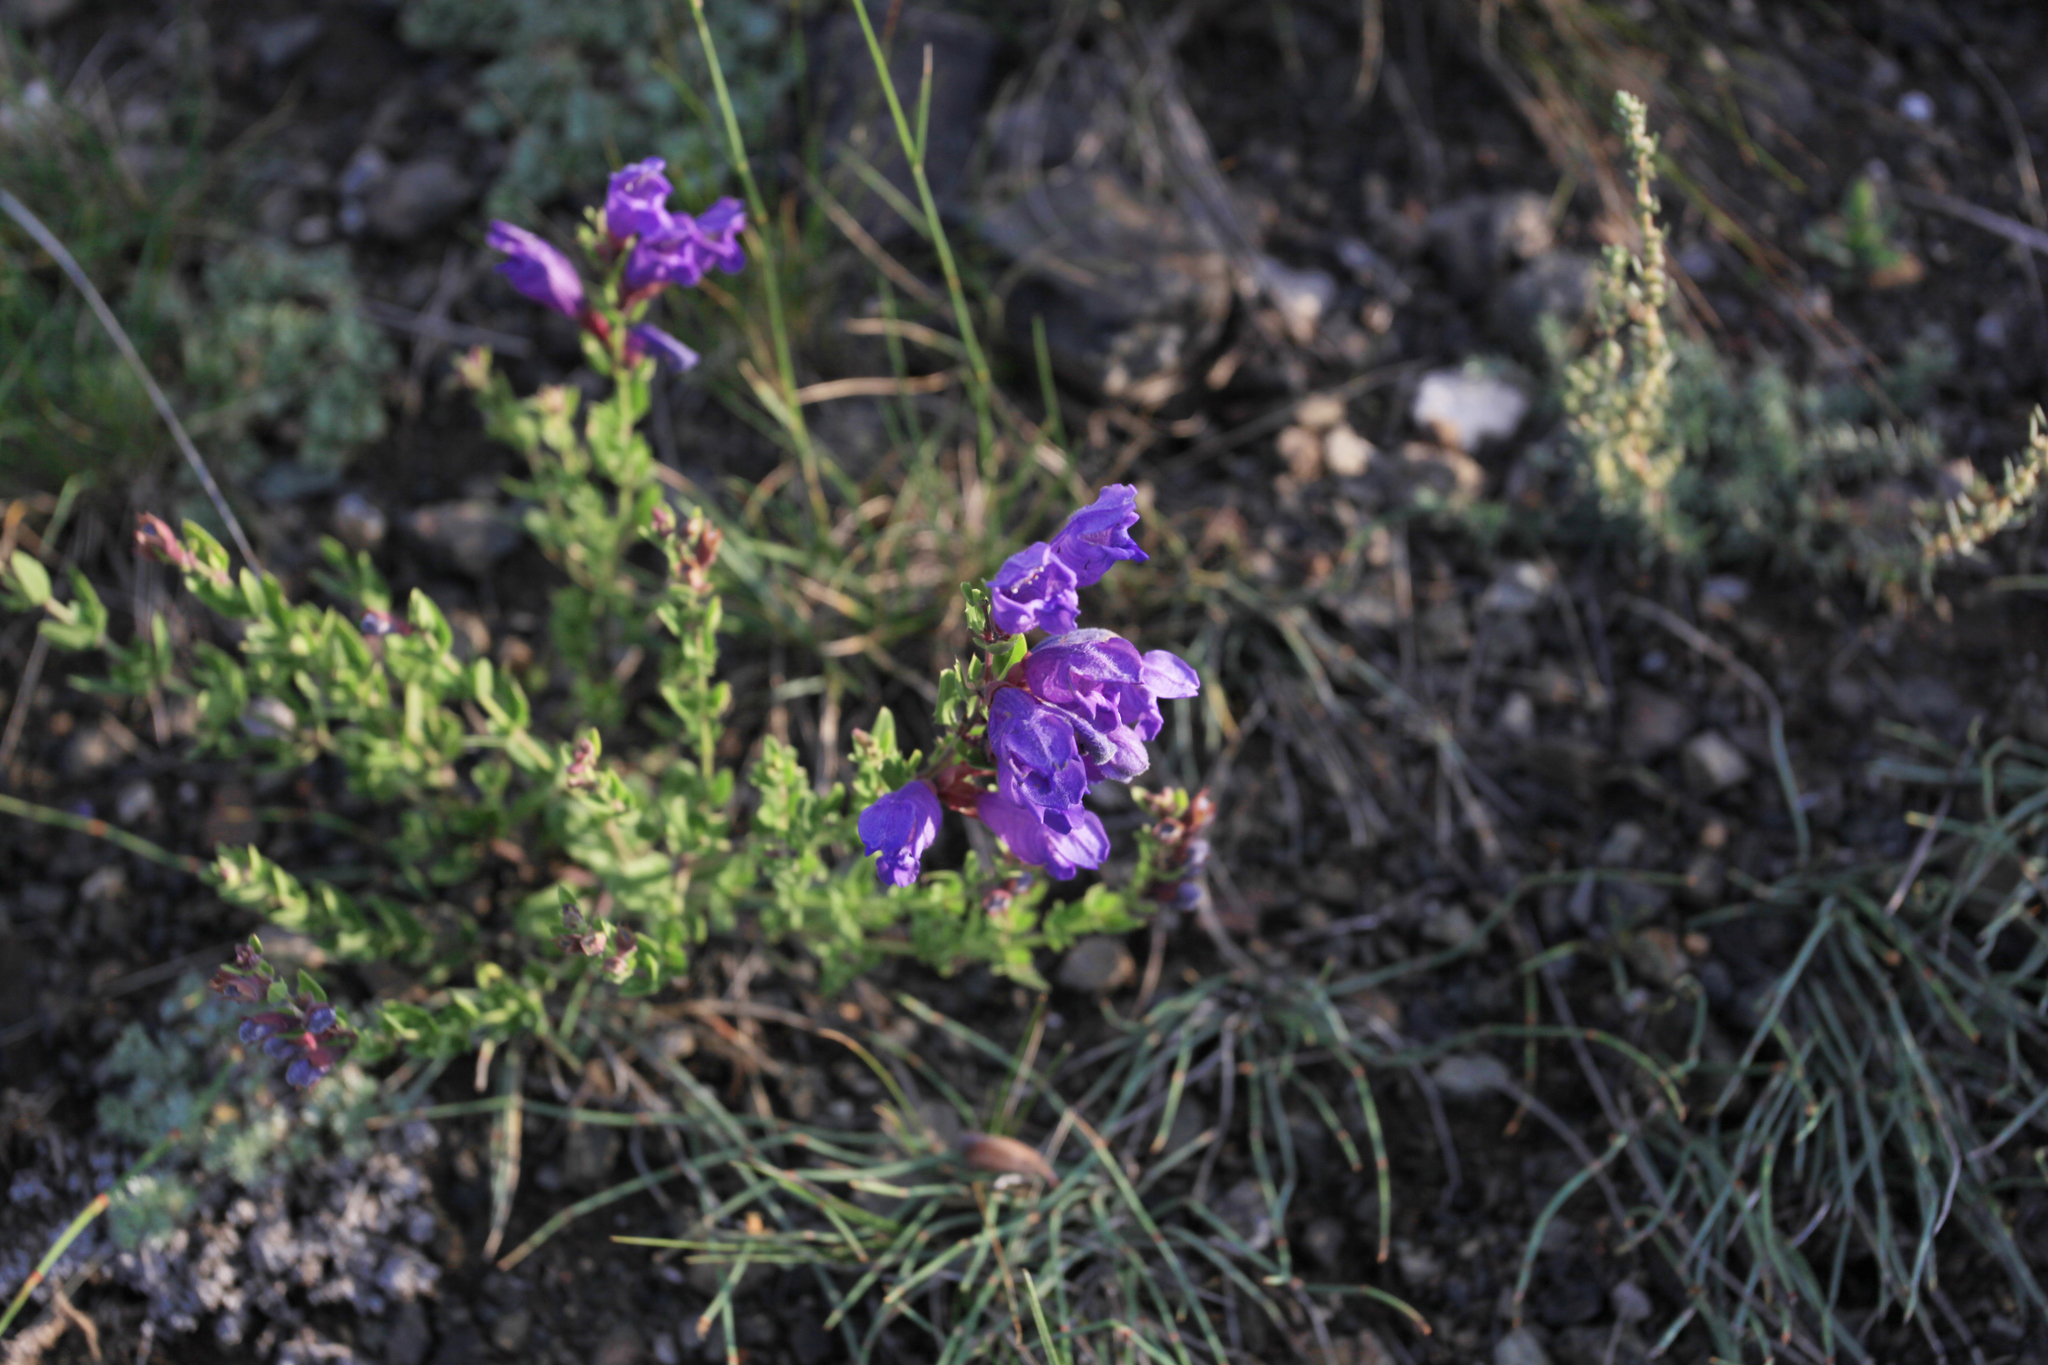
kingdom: Plantae
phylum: Tracheophyta
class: Magnoliopsida
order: Lamiales
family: Lamiaceae
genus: Dracocephalum
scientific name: Dracocephalum peregrinum
